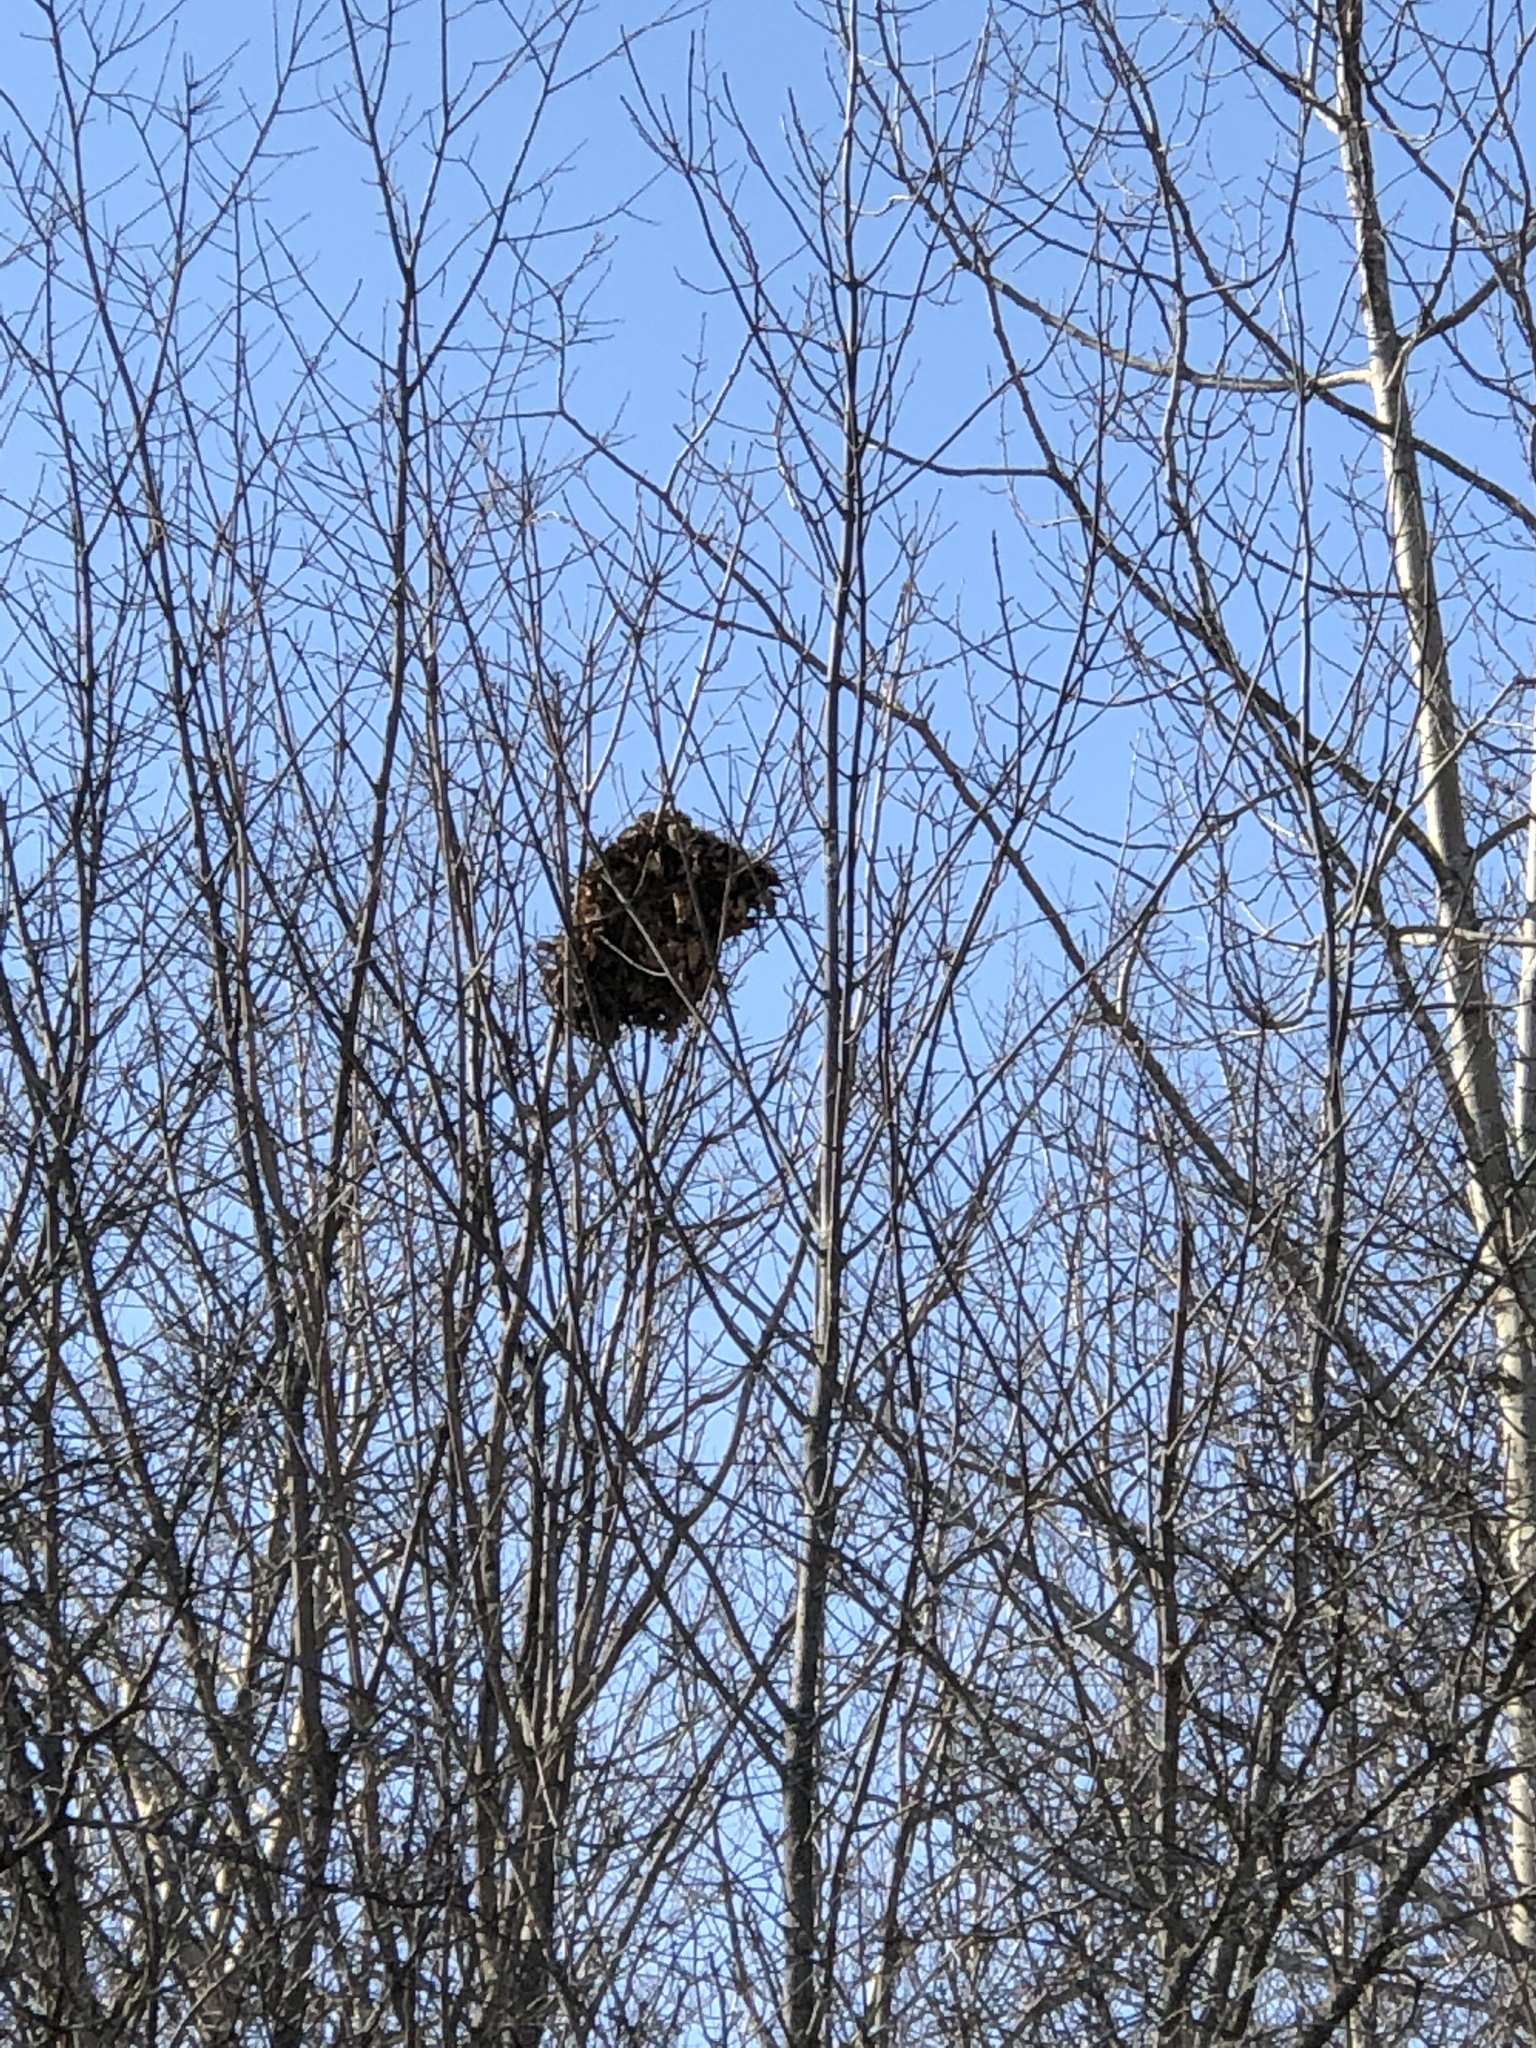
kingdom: Animalia
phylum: Chordata
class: Mammalia
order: Rodentia
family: Sciuridae
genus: Sciurus
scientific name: Sciurus carolinensis
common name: Eastern gray squirrel
